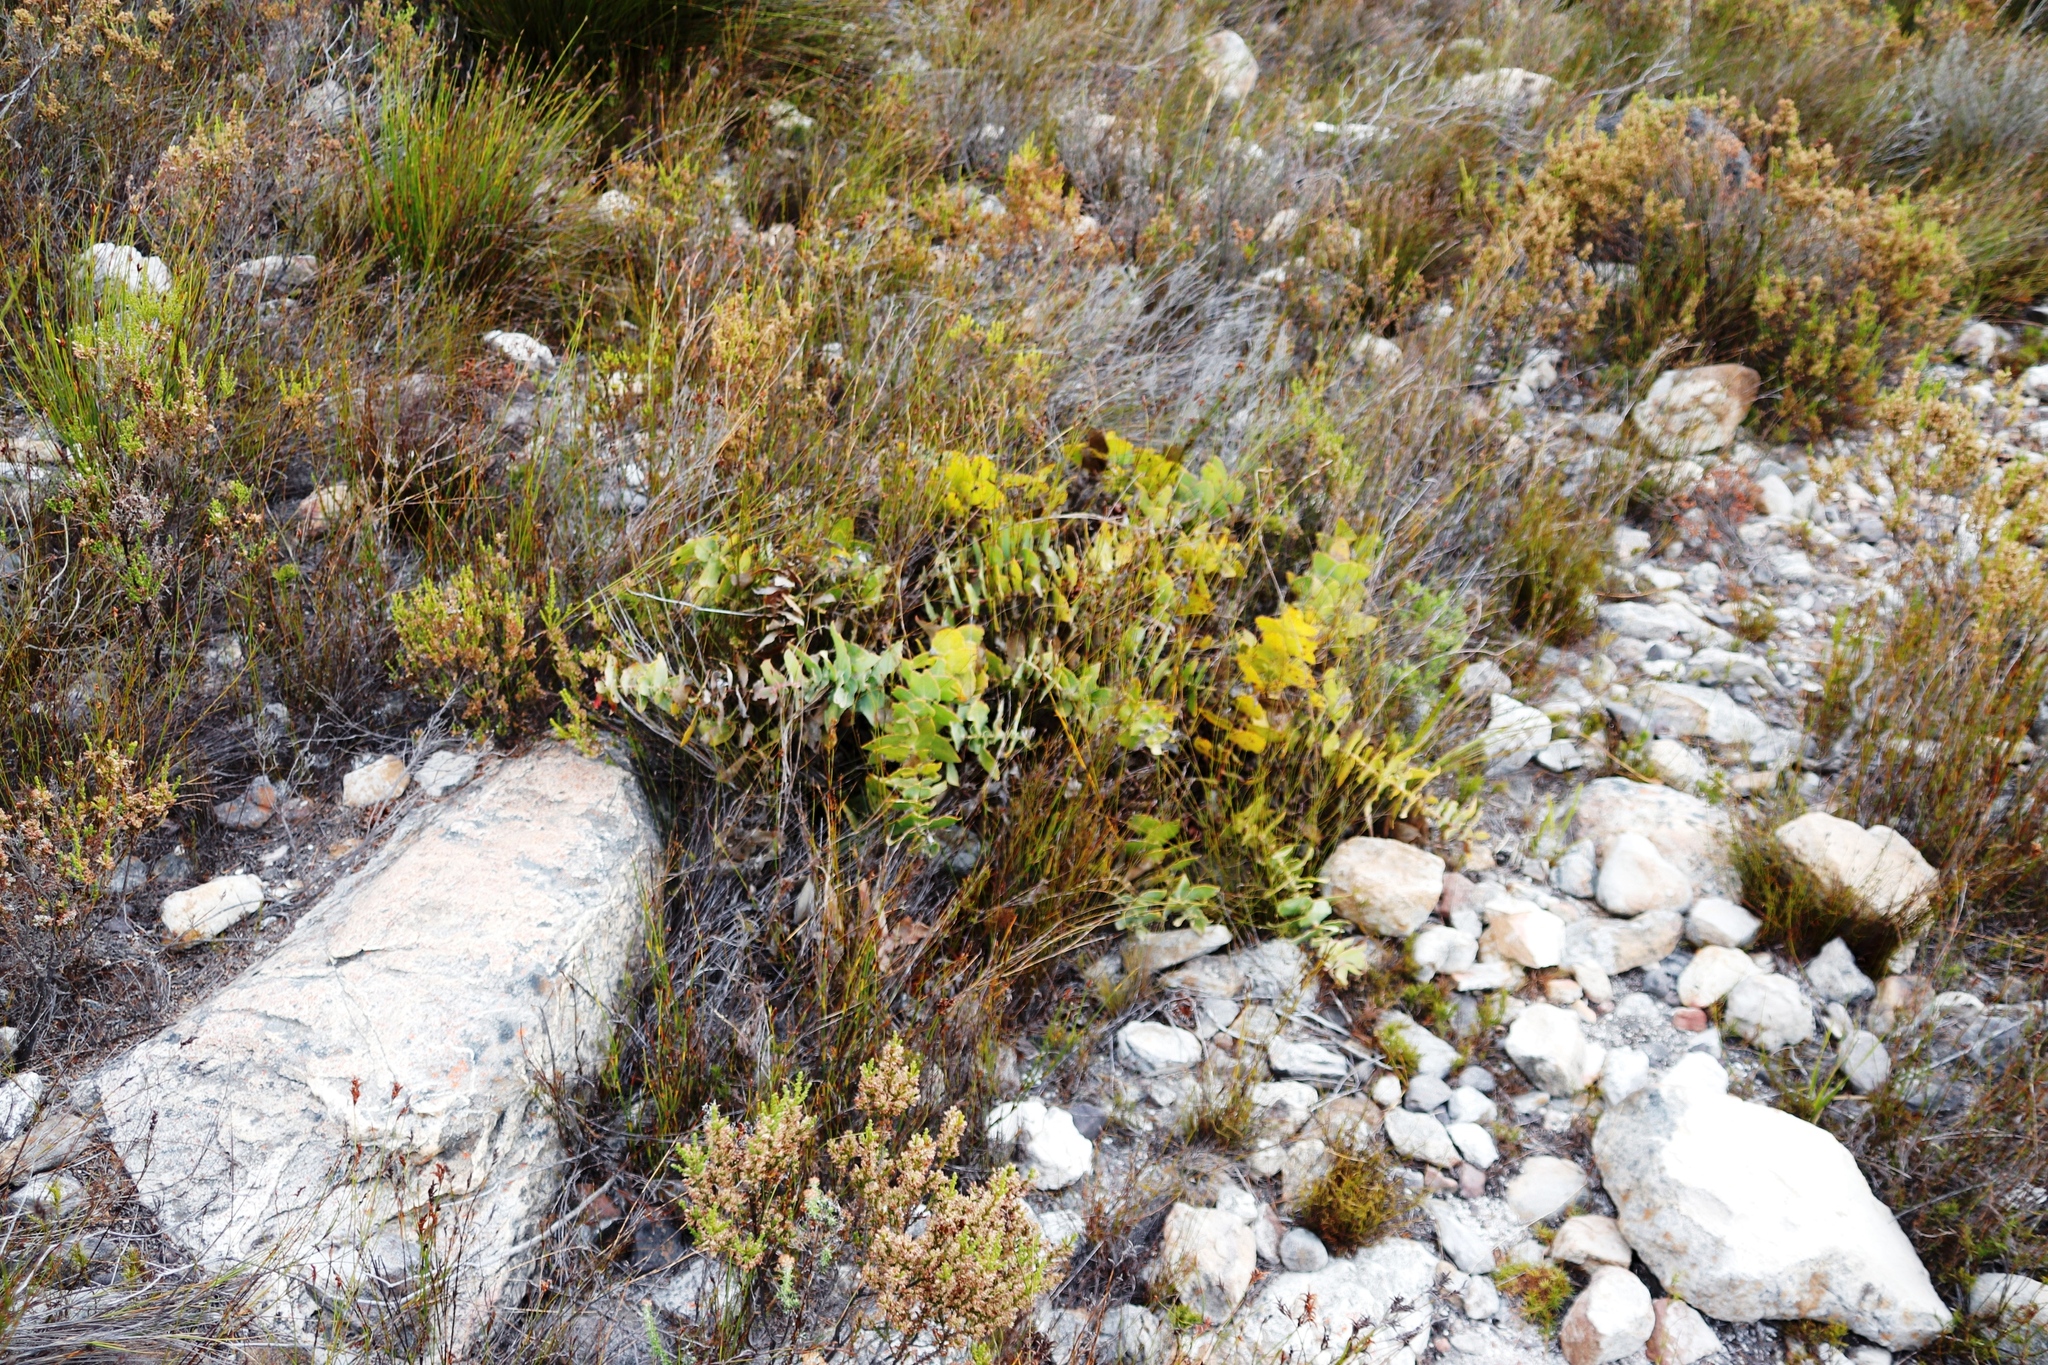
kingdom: Plantae
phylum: Tracheophyta
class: Magnoliopsida
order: Proteales
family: Proteaceae
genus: Protea
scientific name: Protea amplexicaulis
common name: Clasping-leaf sugarbush
